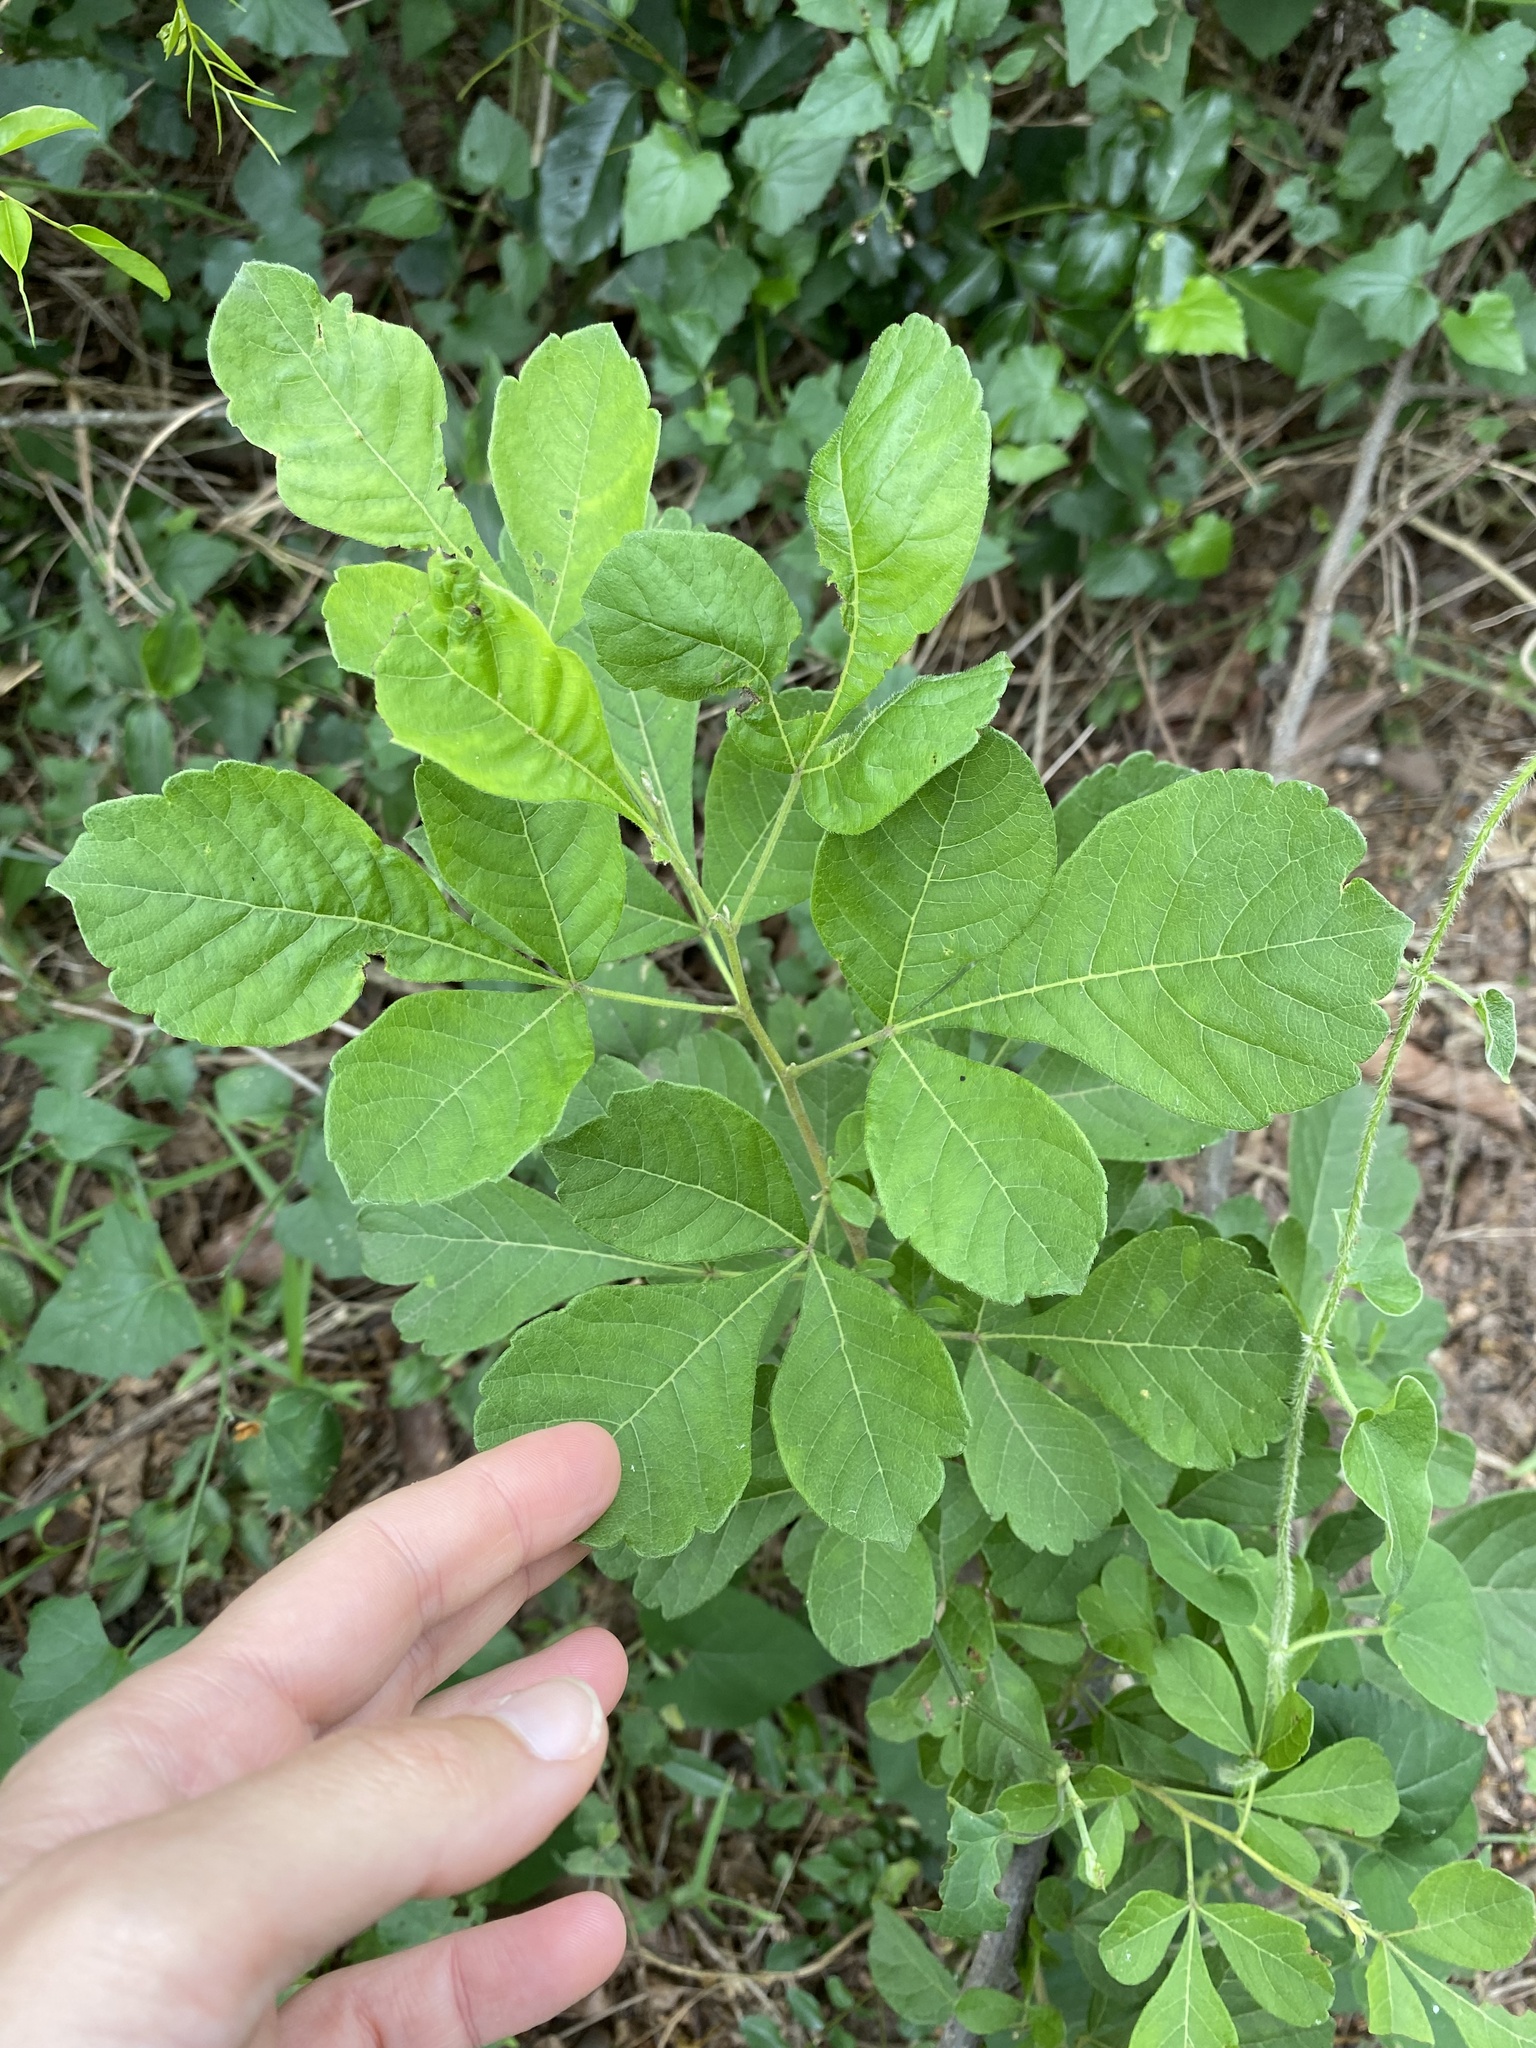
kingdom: Plantae
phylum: Tracheophyta
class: Magnoliopsida
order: Sapindales
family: Anacardiaceae
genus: Searsia
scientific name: Searsia rehmanniana
